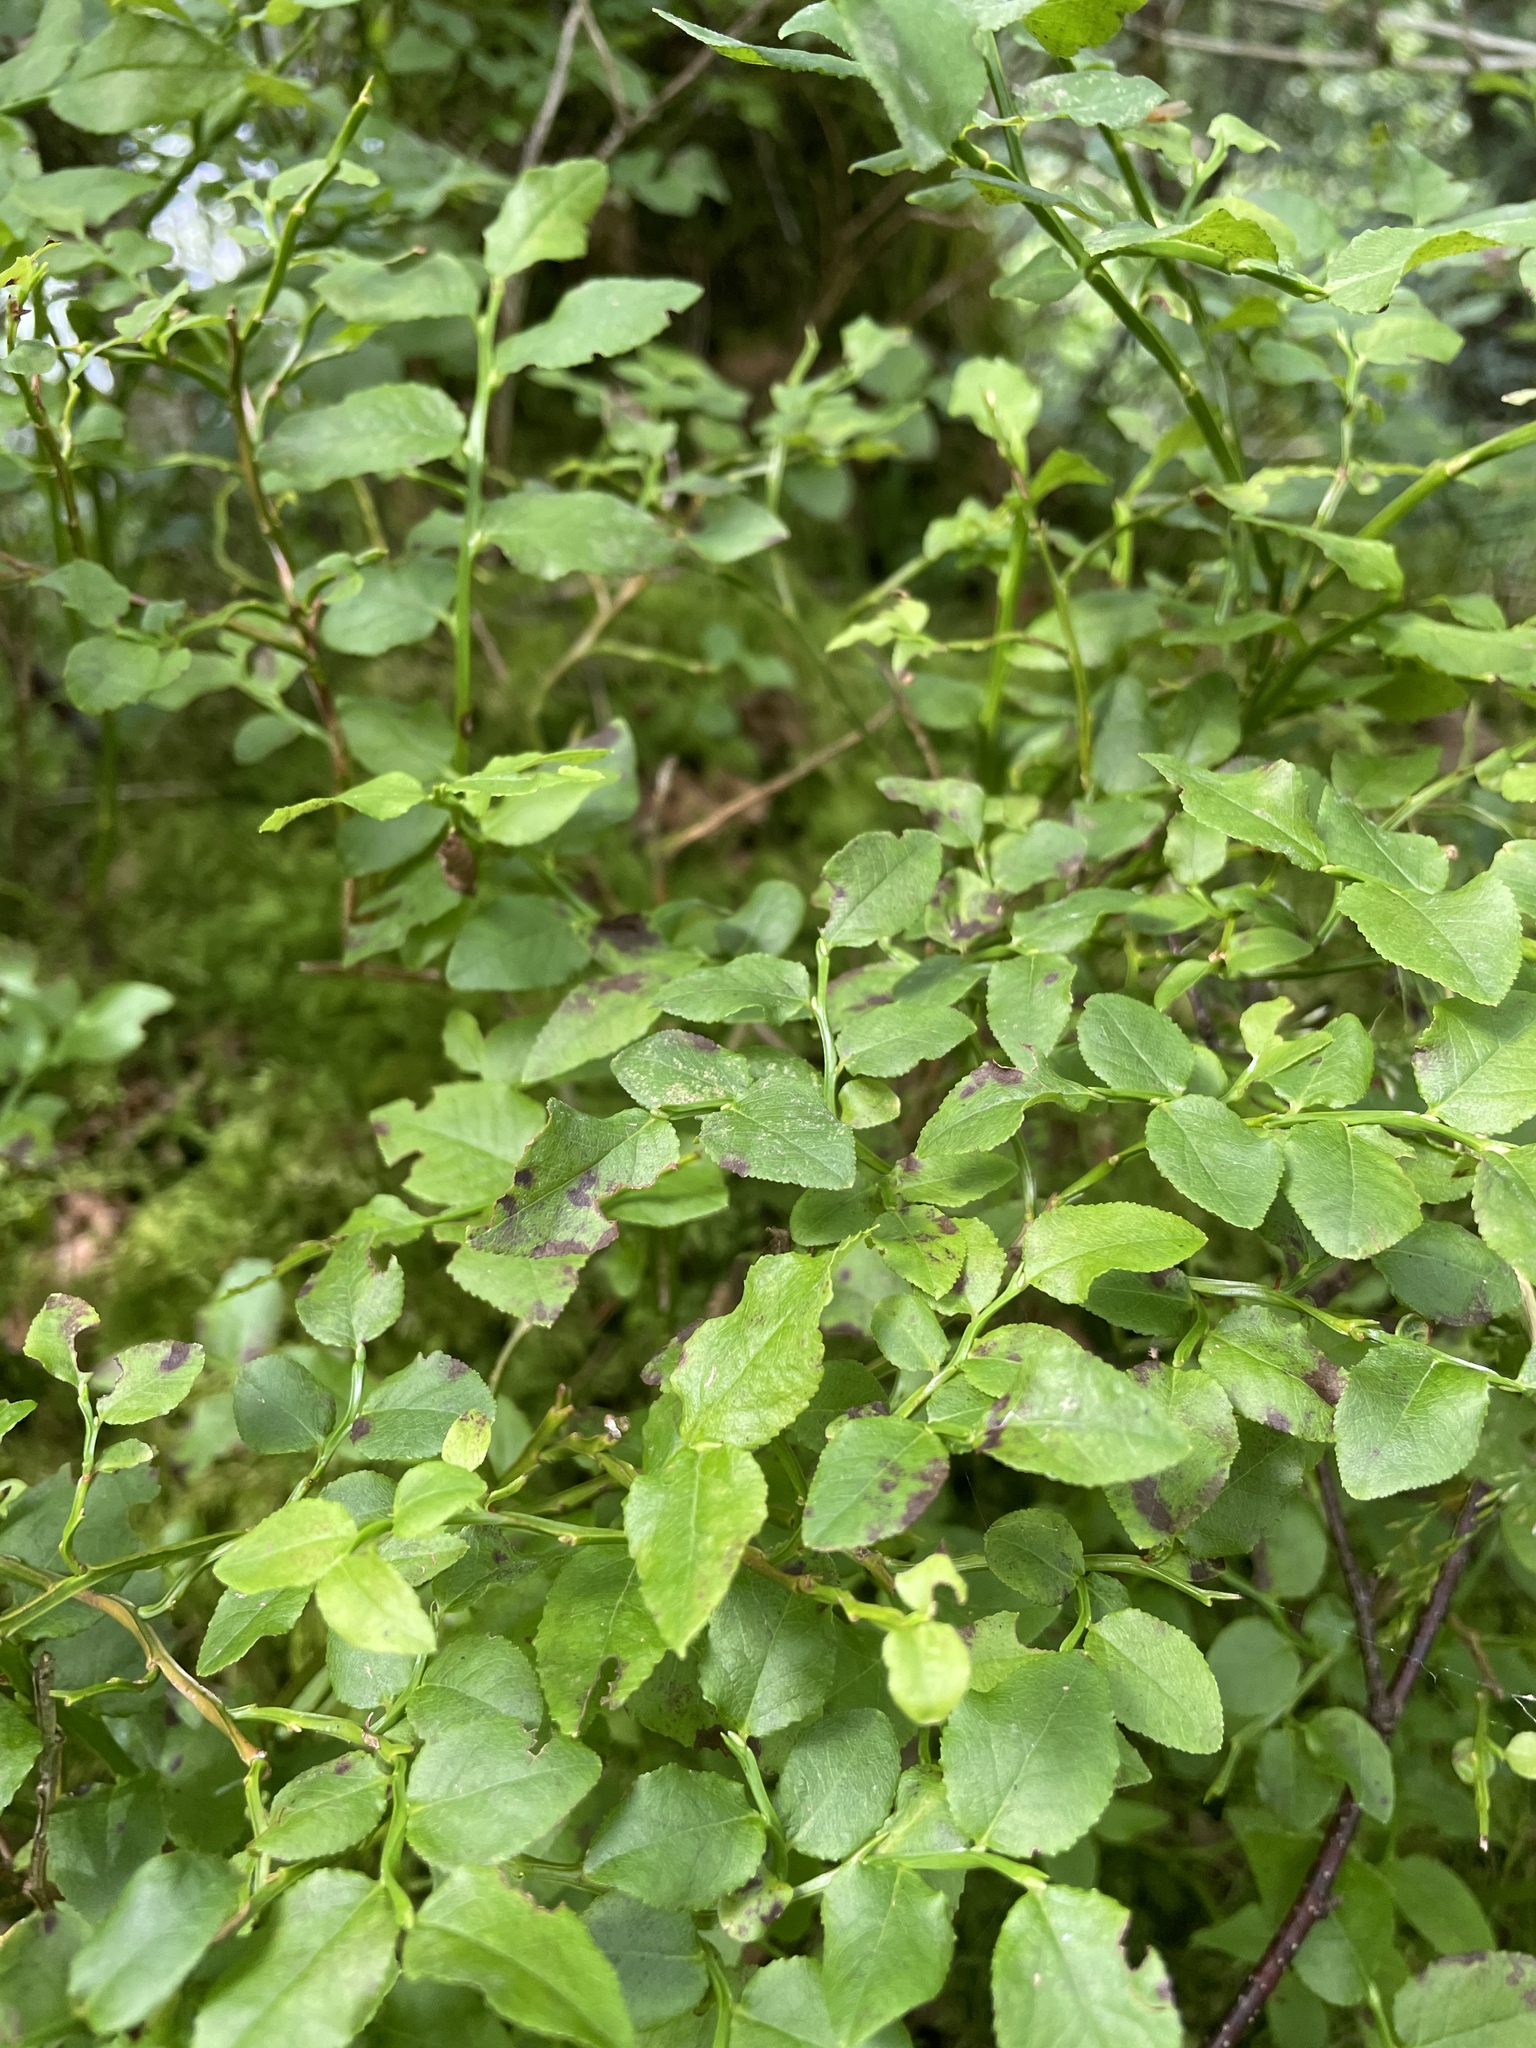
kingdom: Plantae
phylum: Tracheophyta
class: Magnoliopsida
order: Ericales
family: Ericaceae
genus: Vaccinium
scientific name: Vaccinium myrtillus
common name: Bilberry
